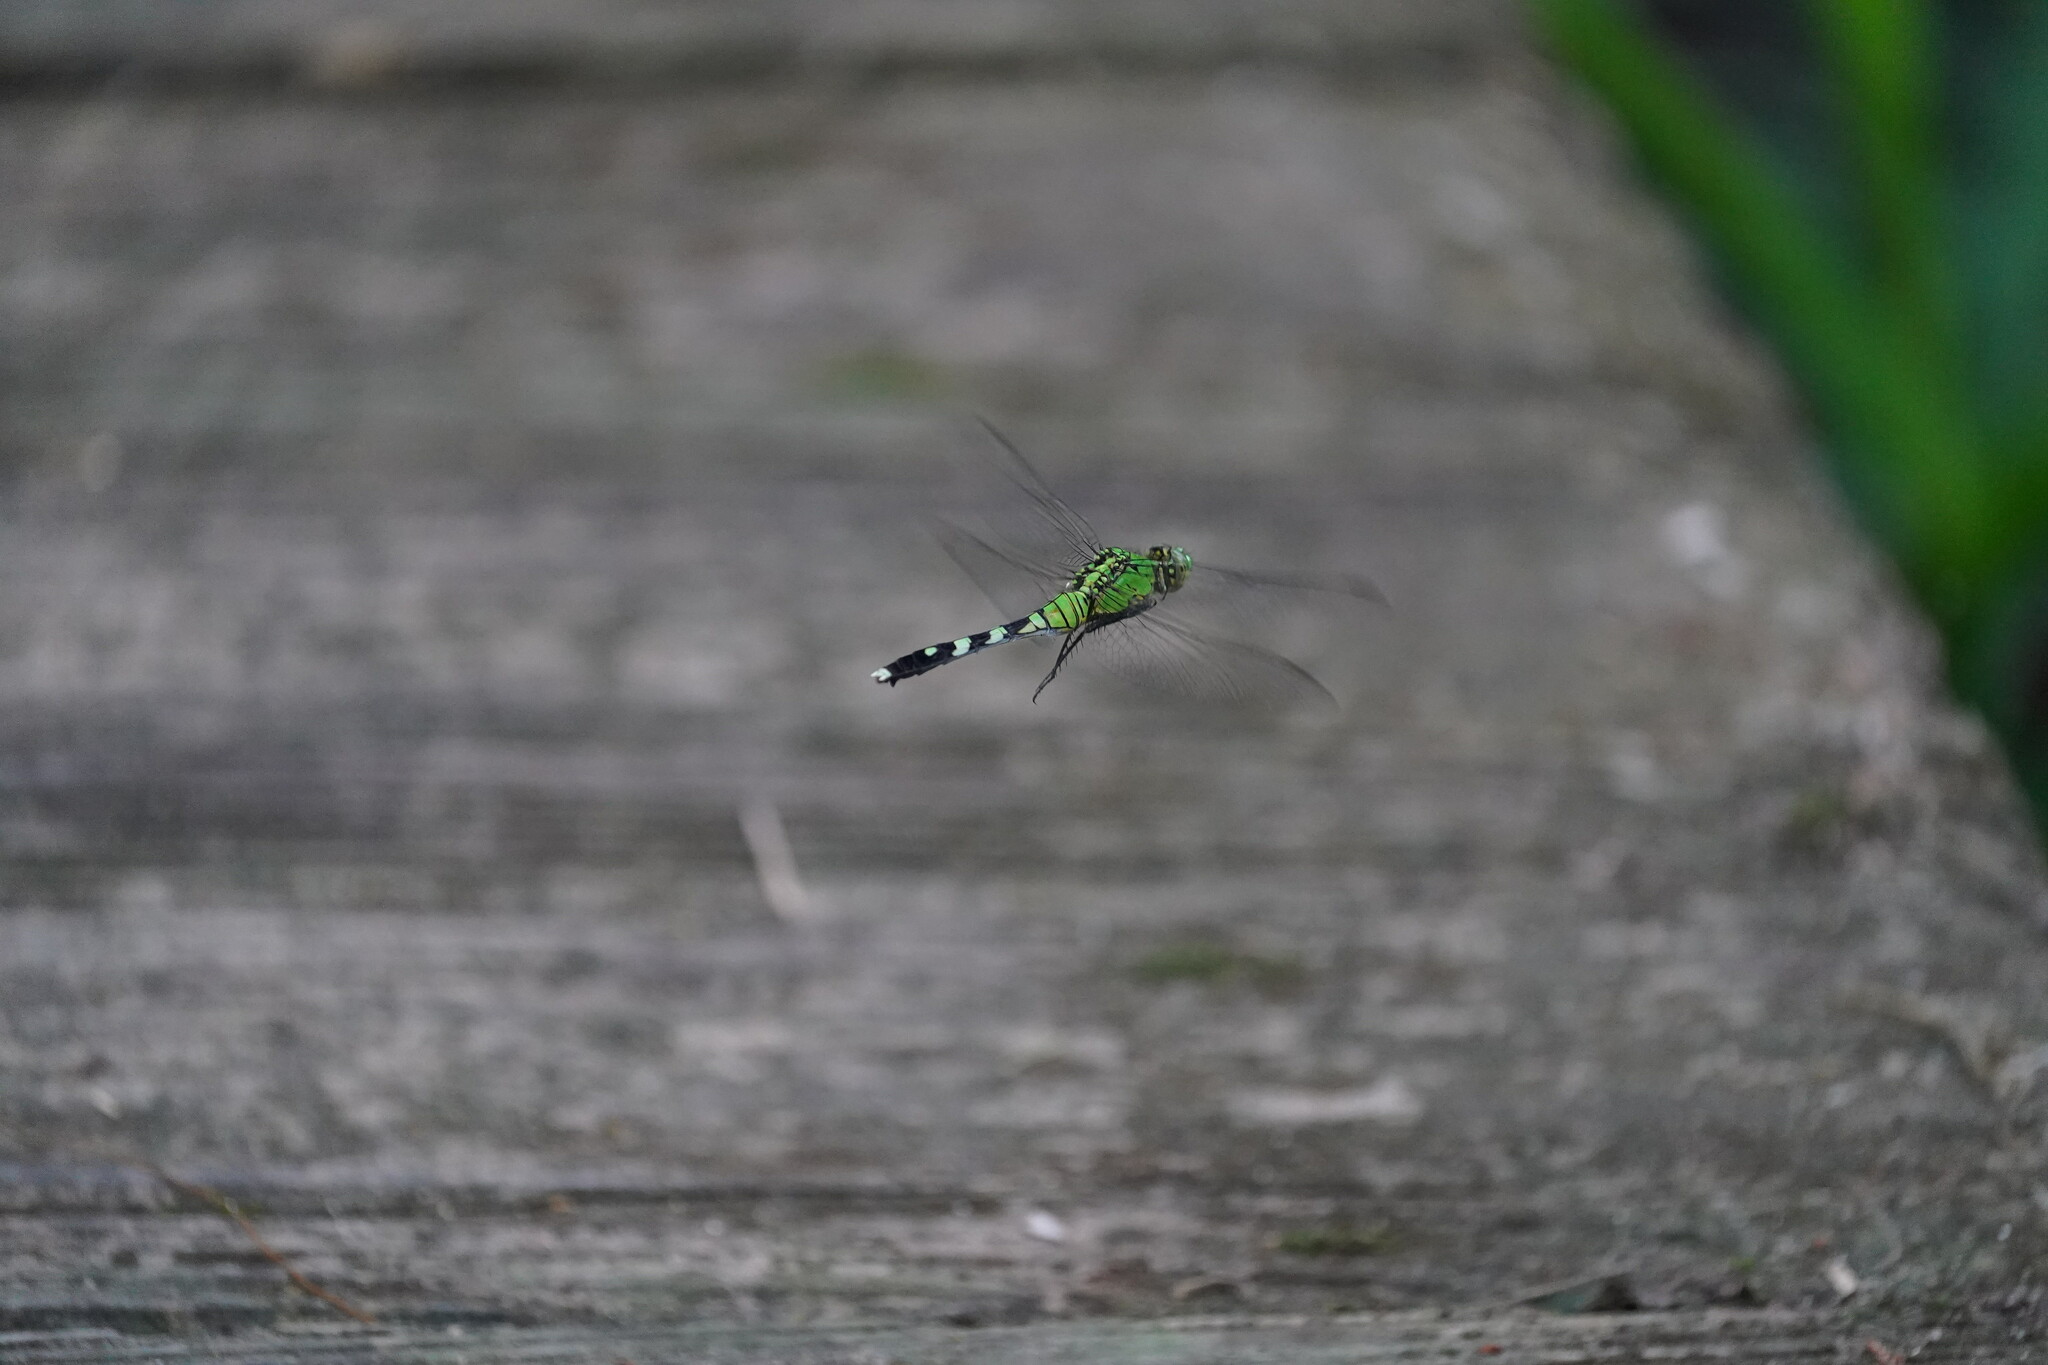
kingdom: Animalia
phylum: Arthropoda
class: Insecta
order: Odonata
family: Libellulidae
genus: Erythemis
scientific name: Erythemis simplicicollis
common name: Eastern pondhawk
